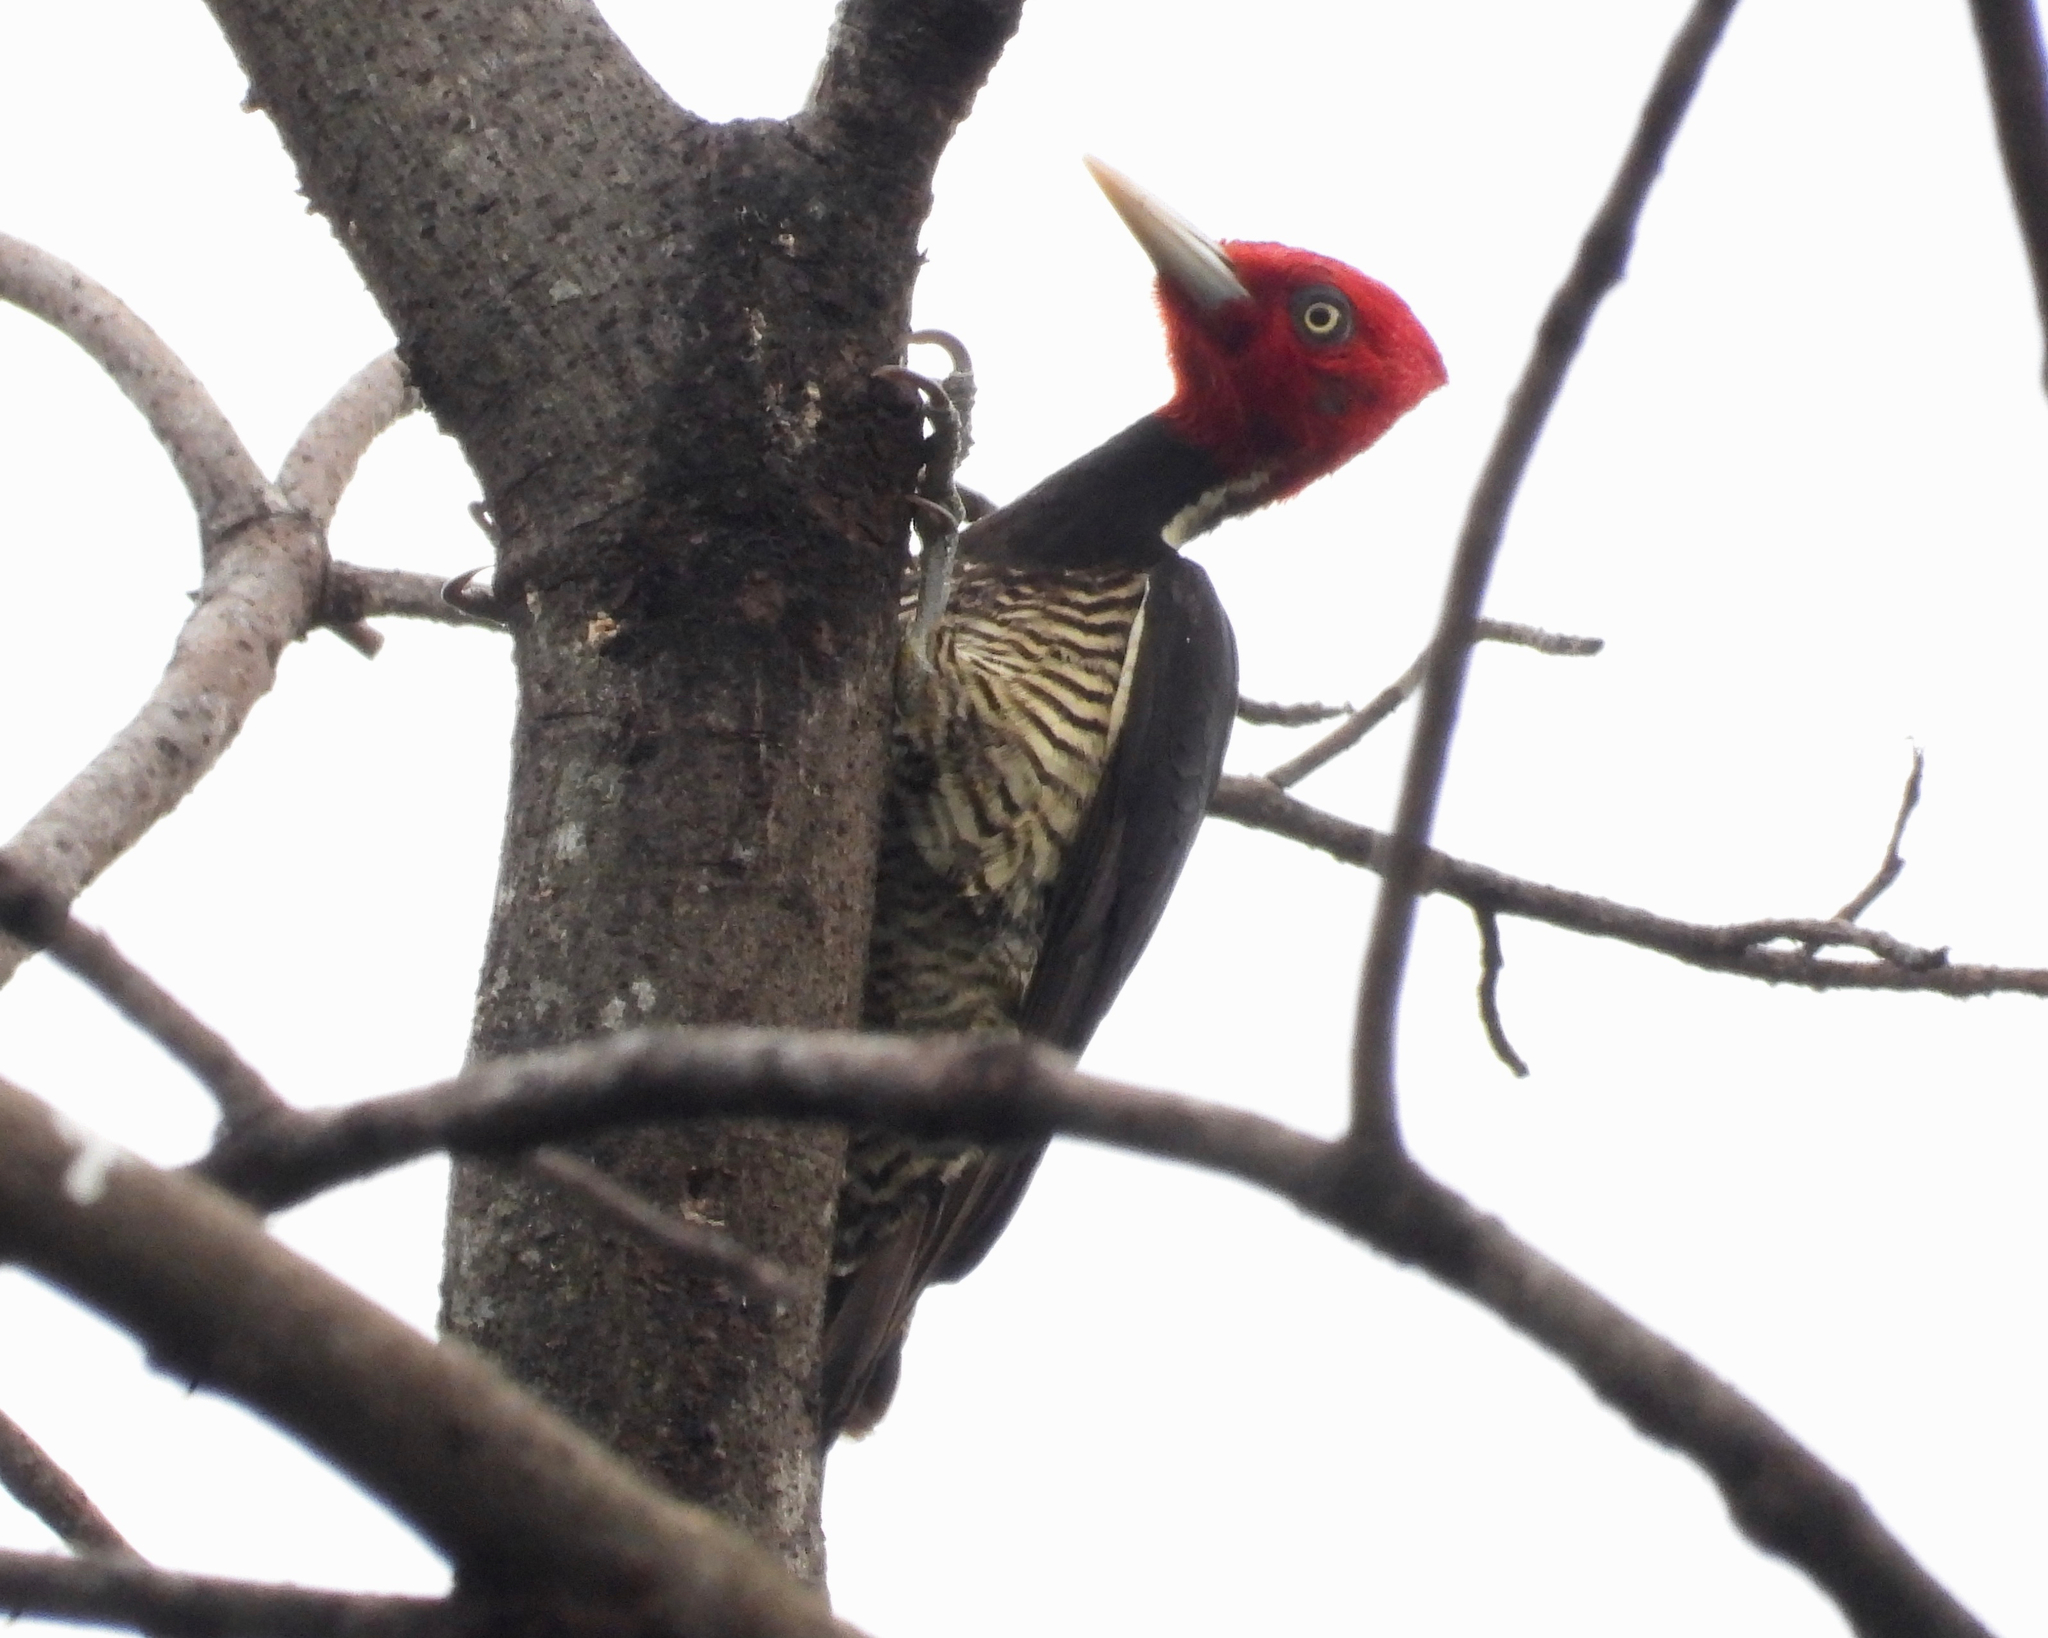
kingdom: Animalia
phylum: Chordata
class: Aves
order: Piciformes
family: Picidae
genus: Campephilus
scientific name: Campephilus guatemalensis
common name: Pale-billed woodpecker
